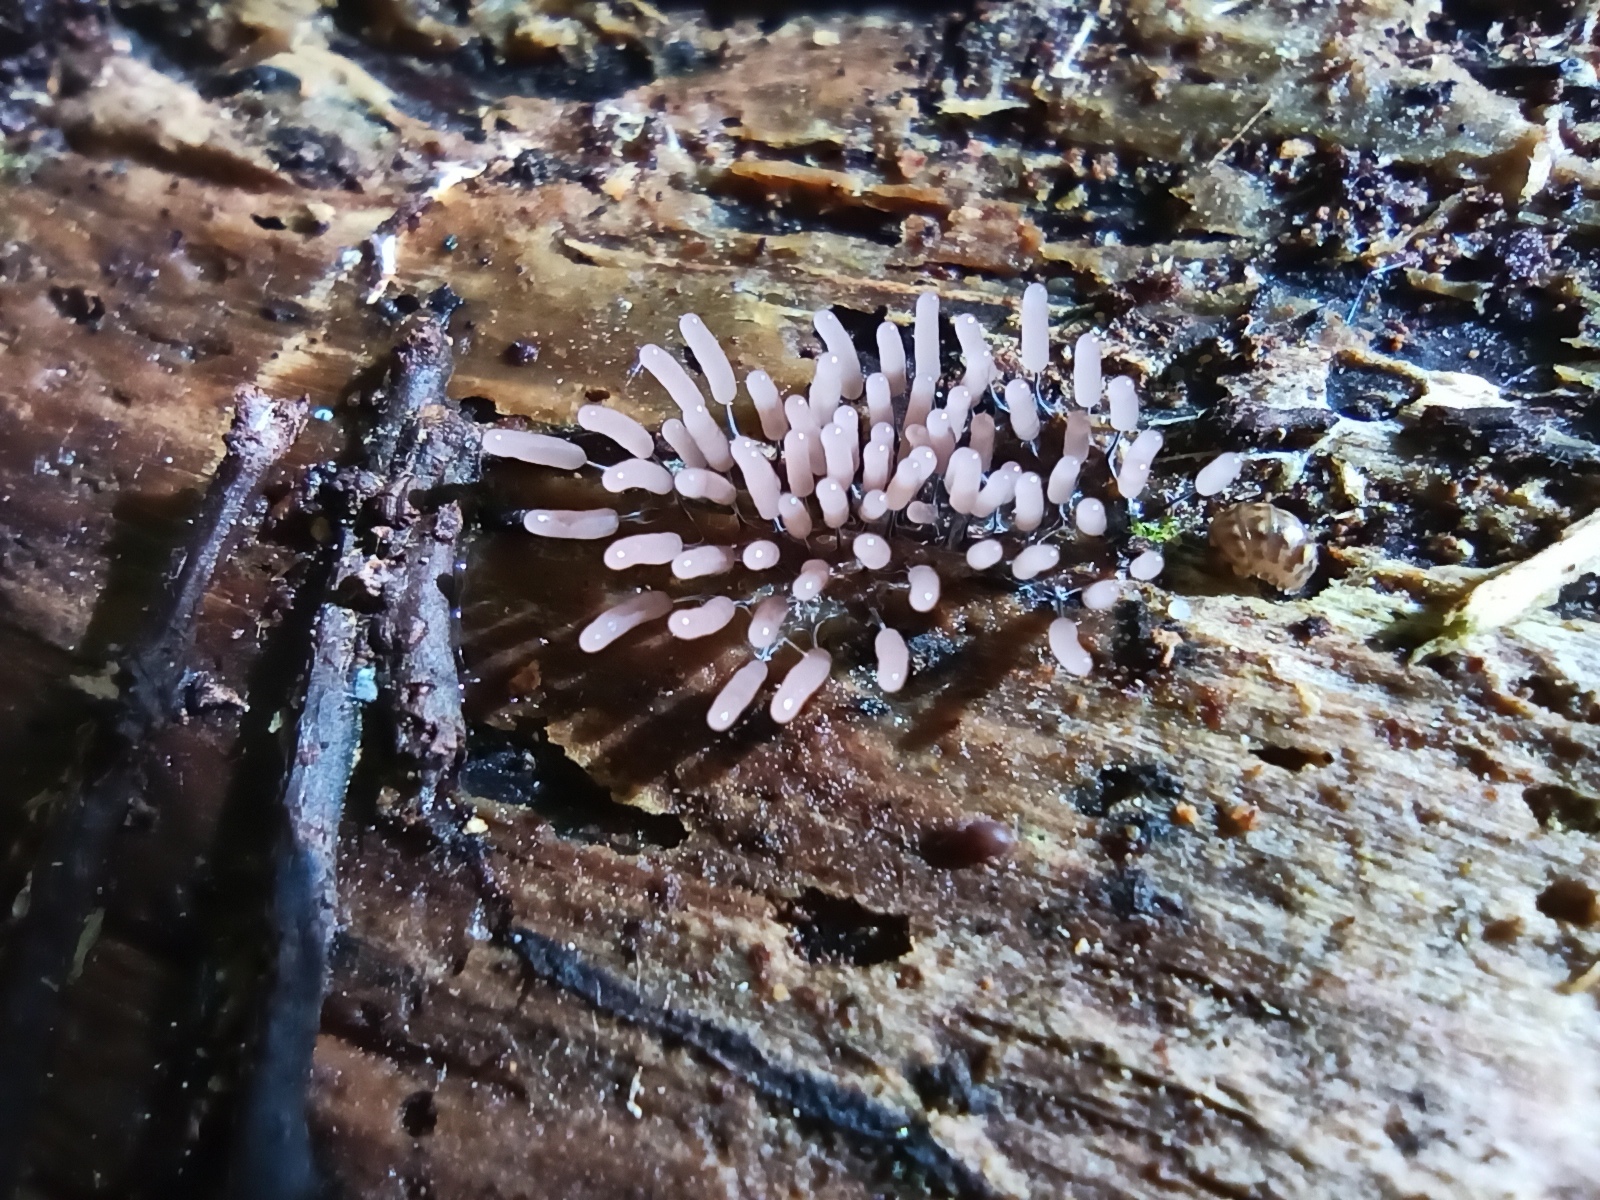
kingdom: Protozoa
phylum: Mycetozoa
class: Myxomycetes
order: Stemonitidales
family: Stemonitidaceae
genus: Stemonitopsis
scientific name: Stemonitopsis typhina
